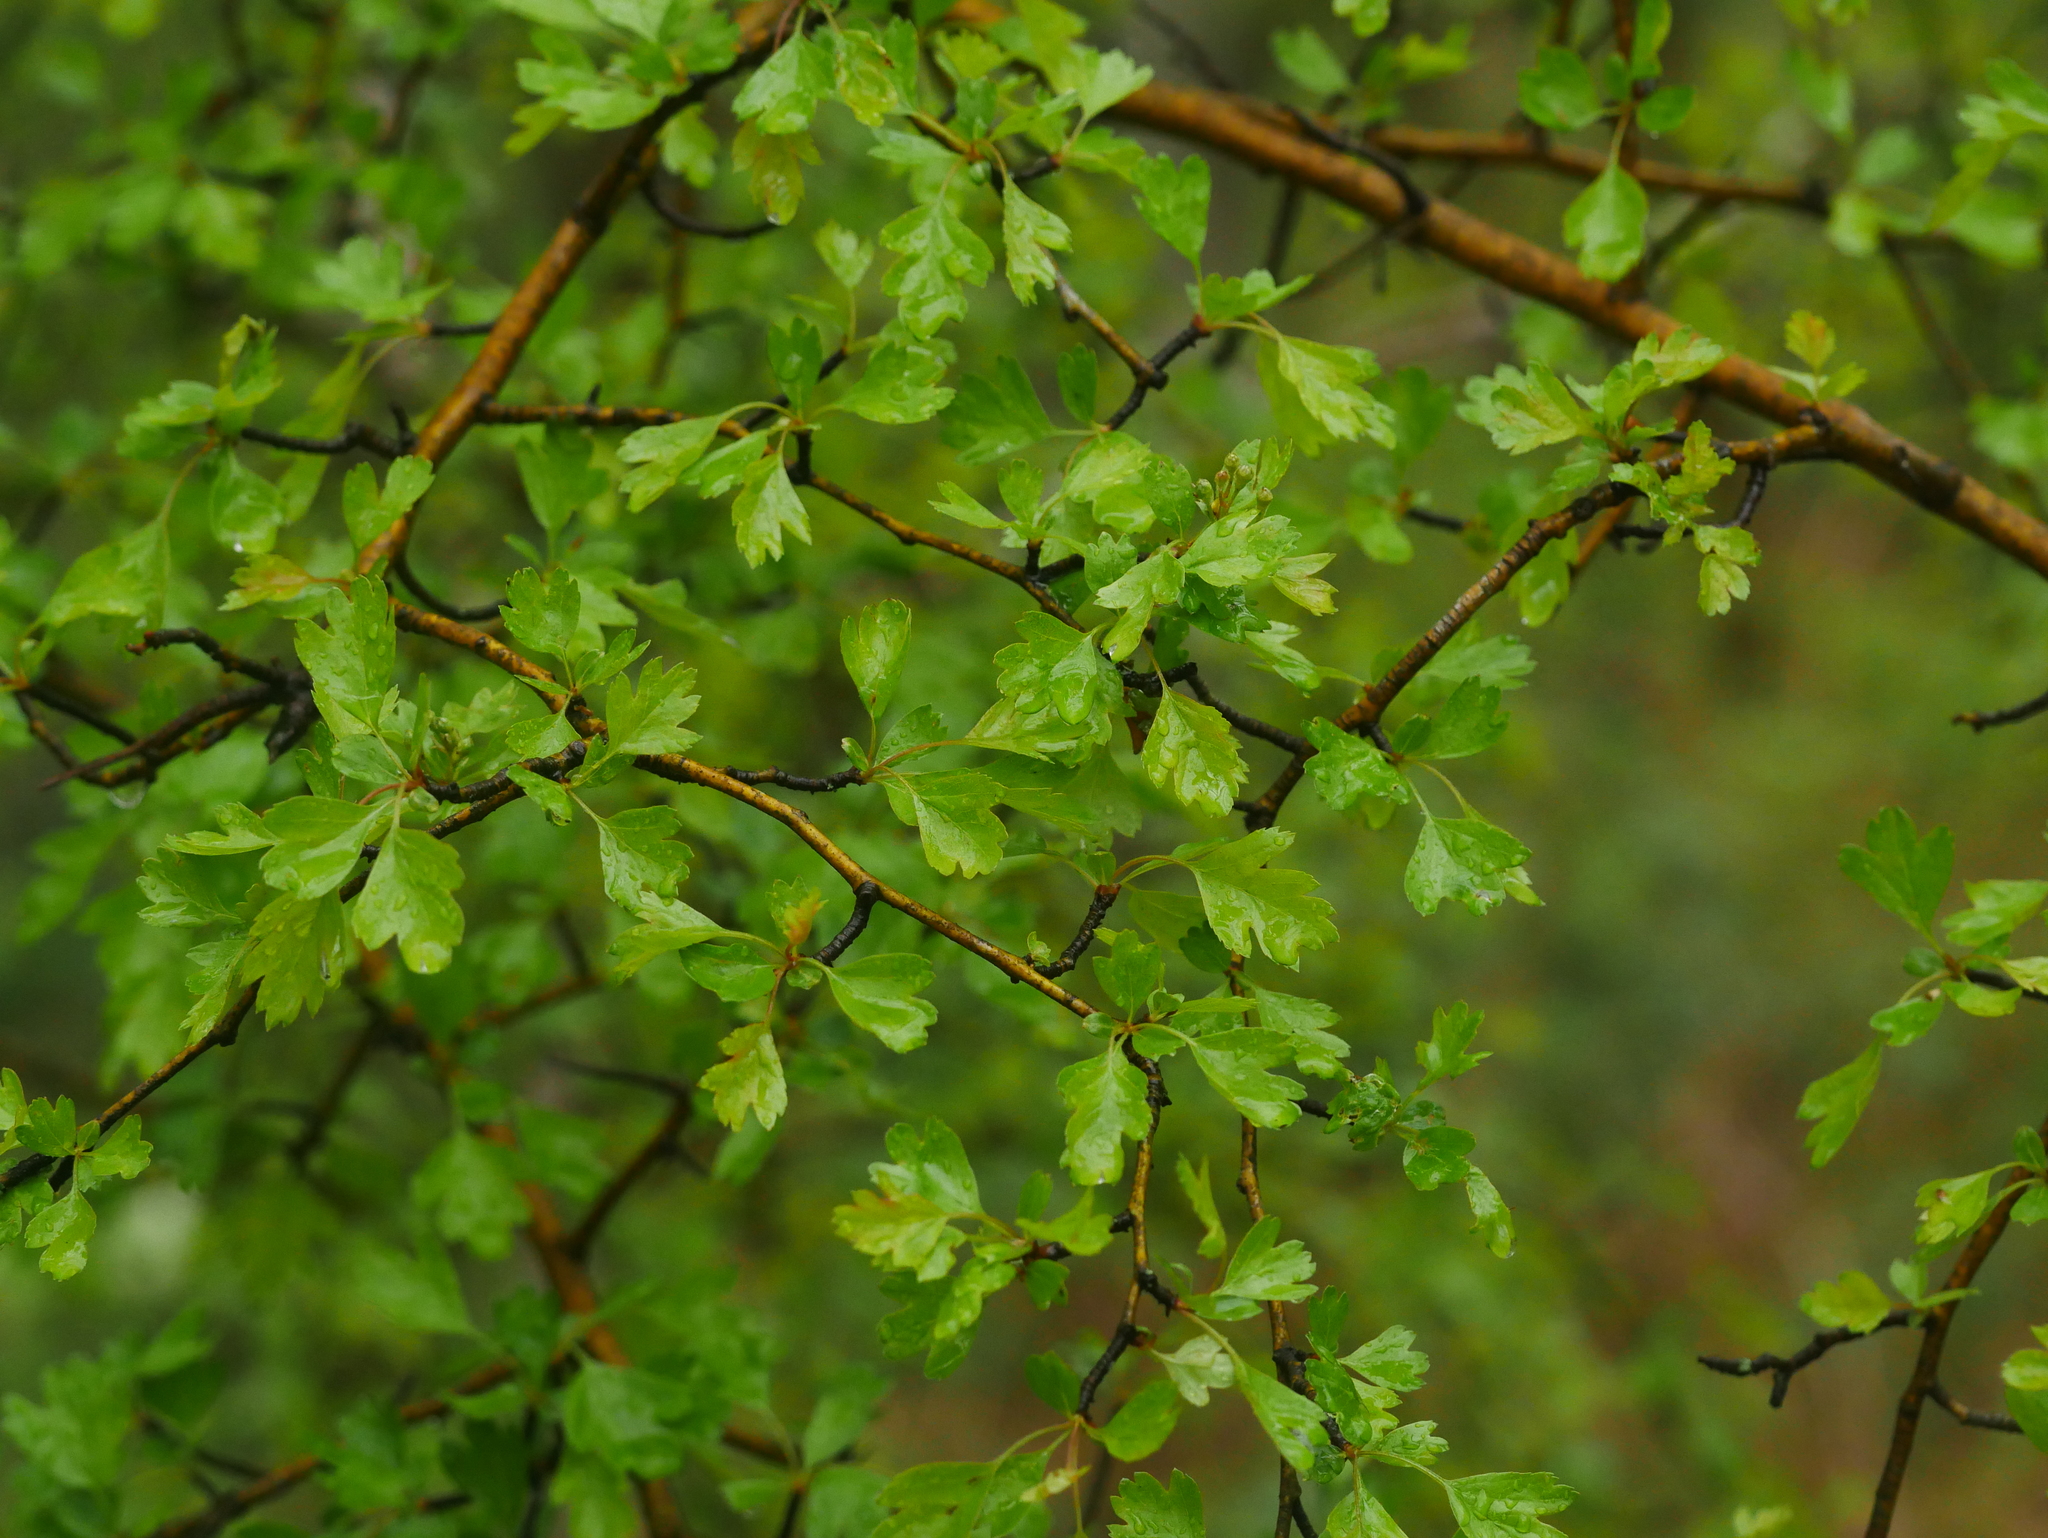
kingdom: Plantae
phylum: Tracheophyta
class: Magnoliopsida
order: Rosales
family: Rosaceae
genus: Crataegus
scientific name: Crataegus monogyna
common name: Hawthorn
